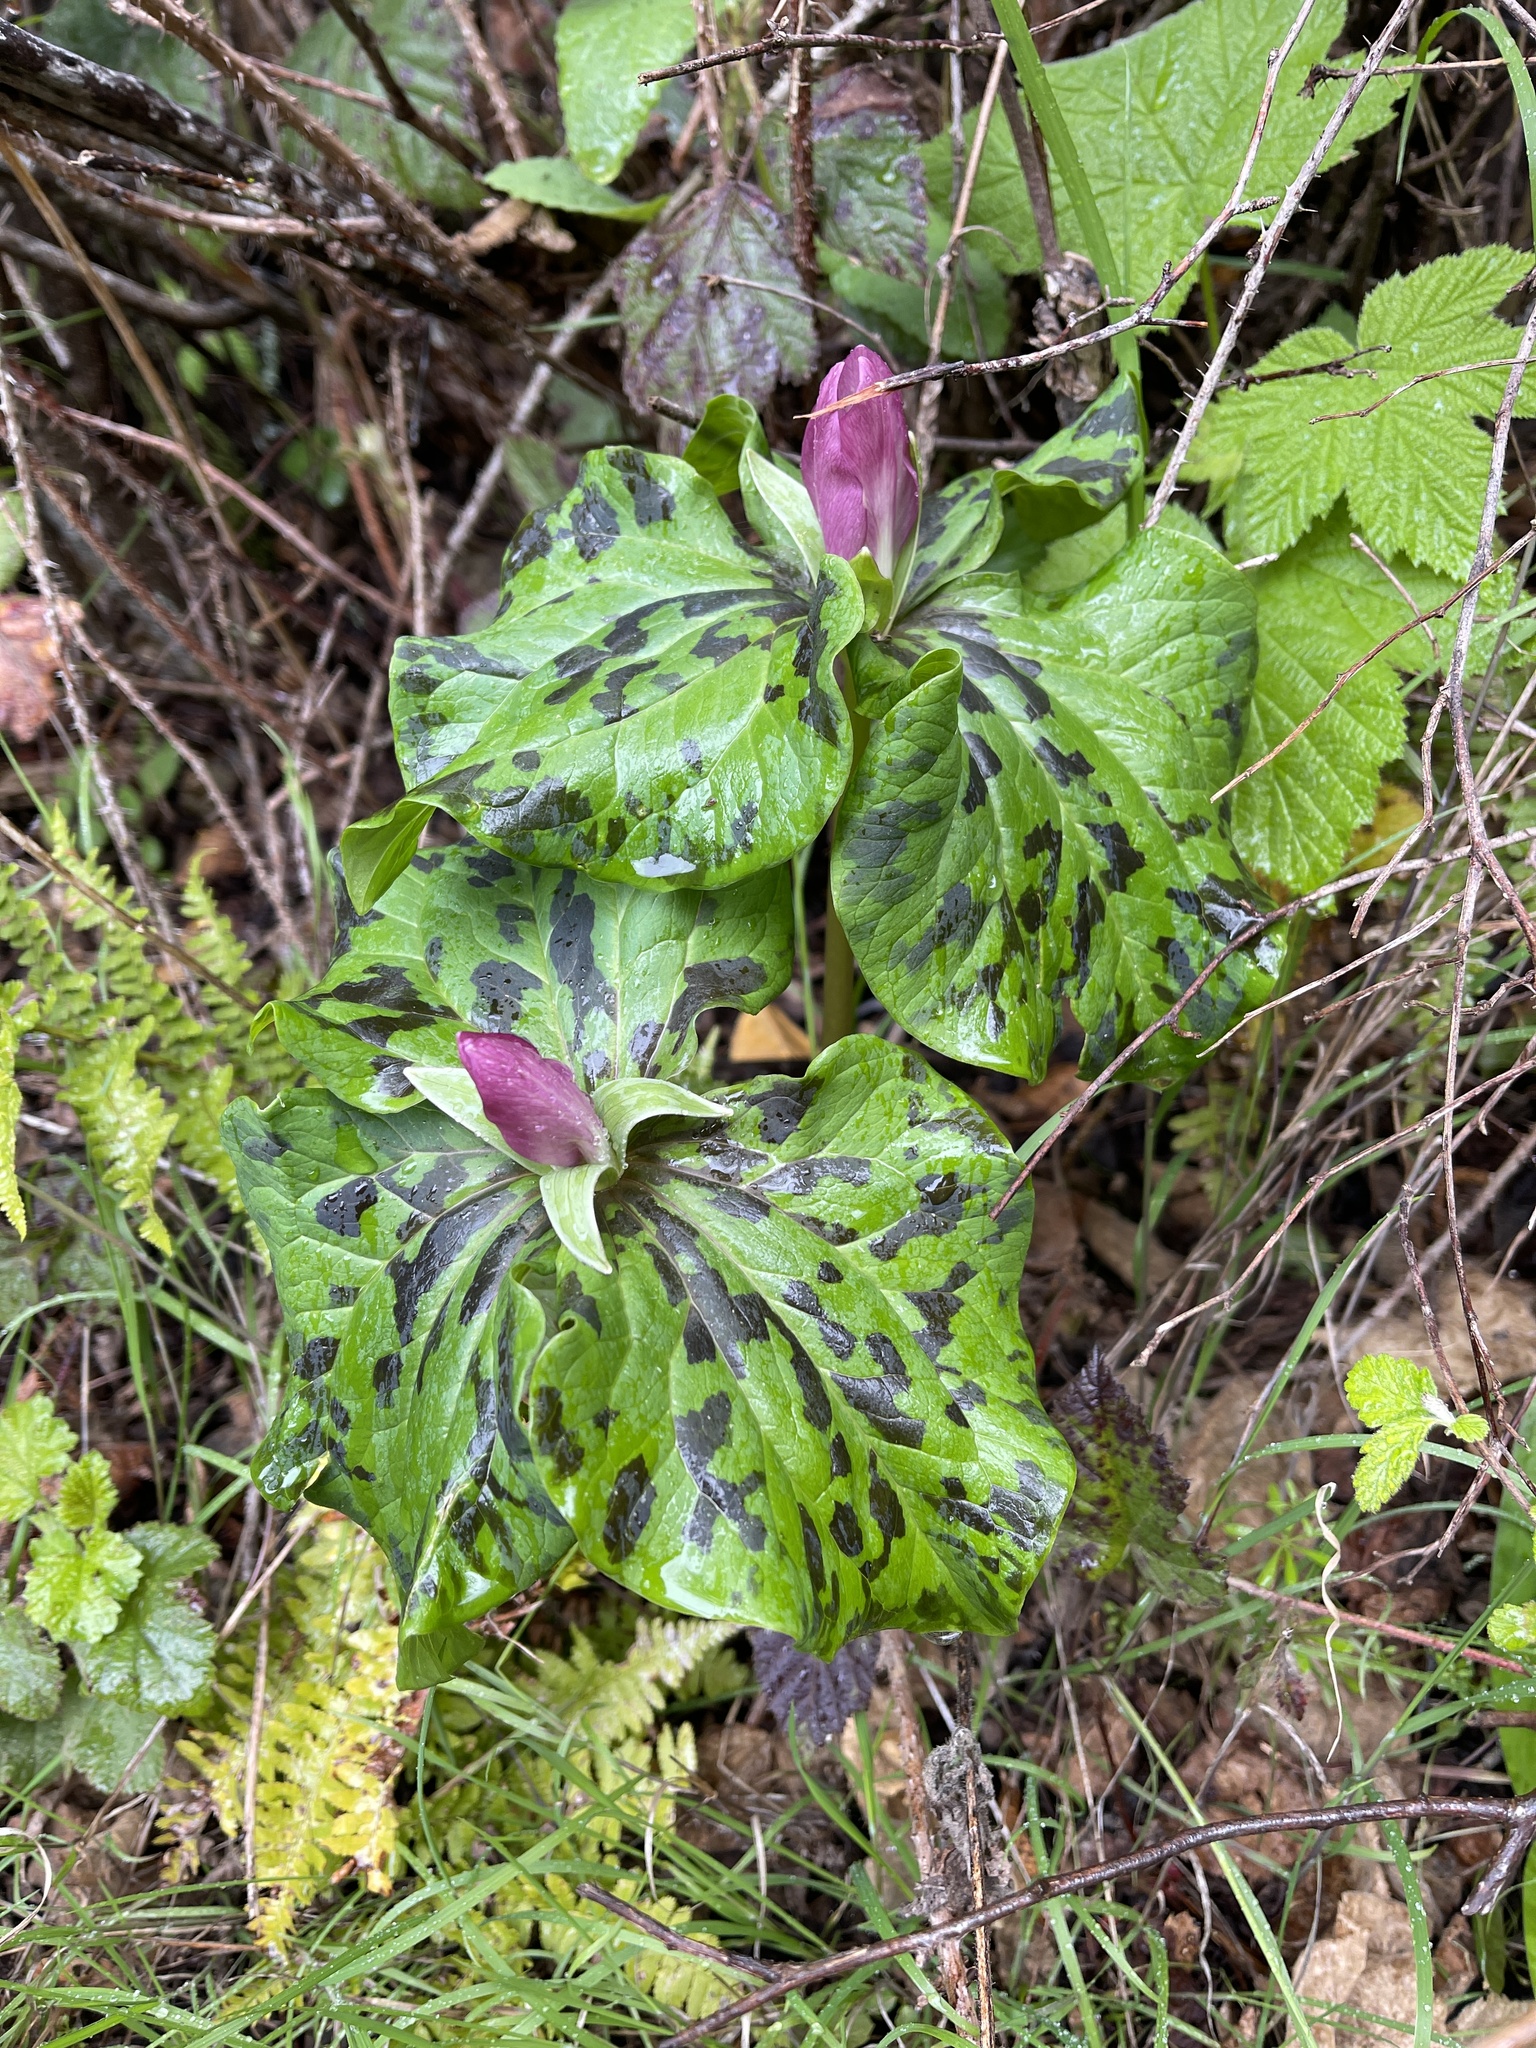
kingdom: Plantae
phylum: Tracheophyta
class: Liliopsida
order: Liliales
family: Melanthiaceae
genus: Trillium
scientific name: Trillium chloropetalum
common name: Giant trillium
